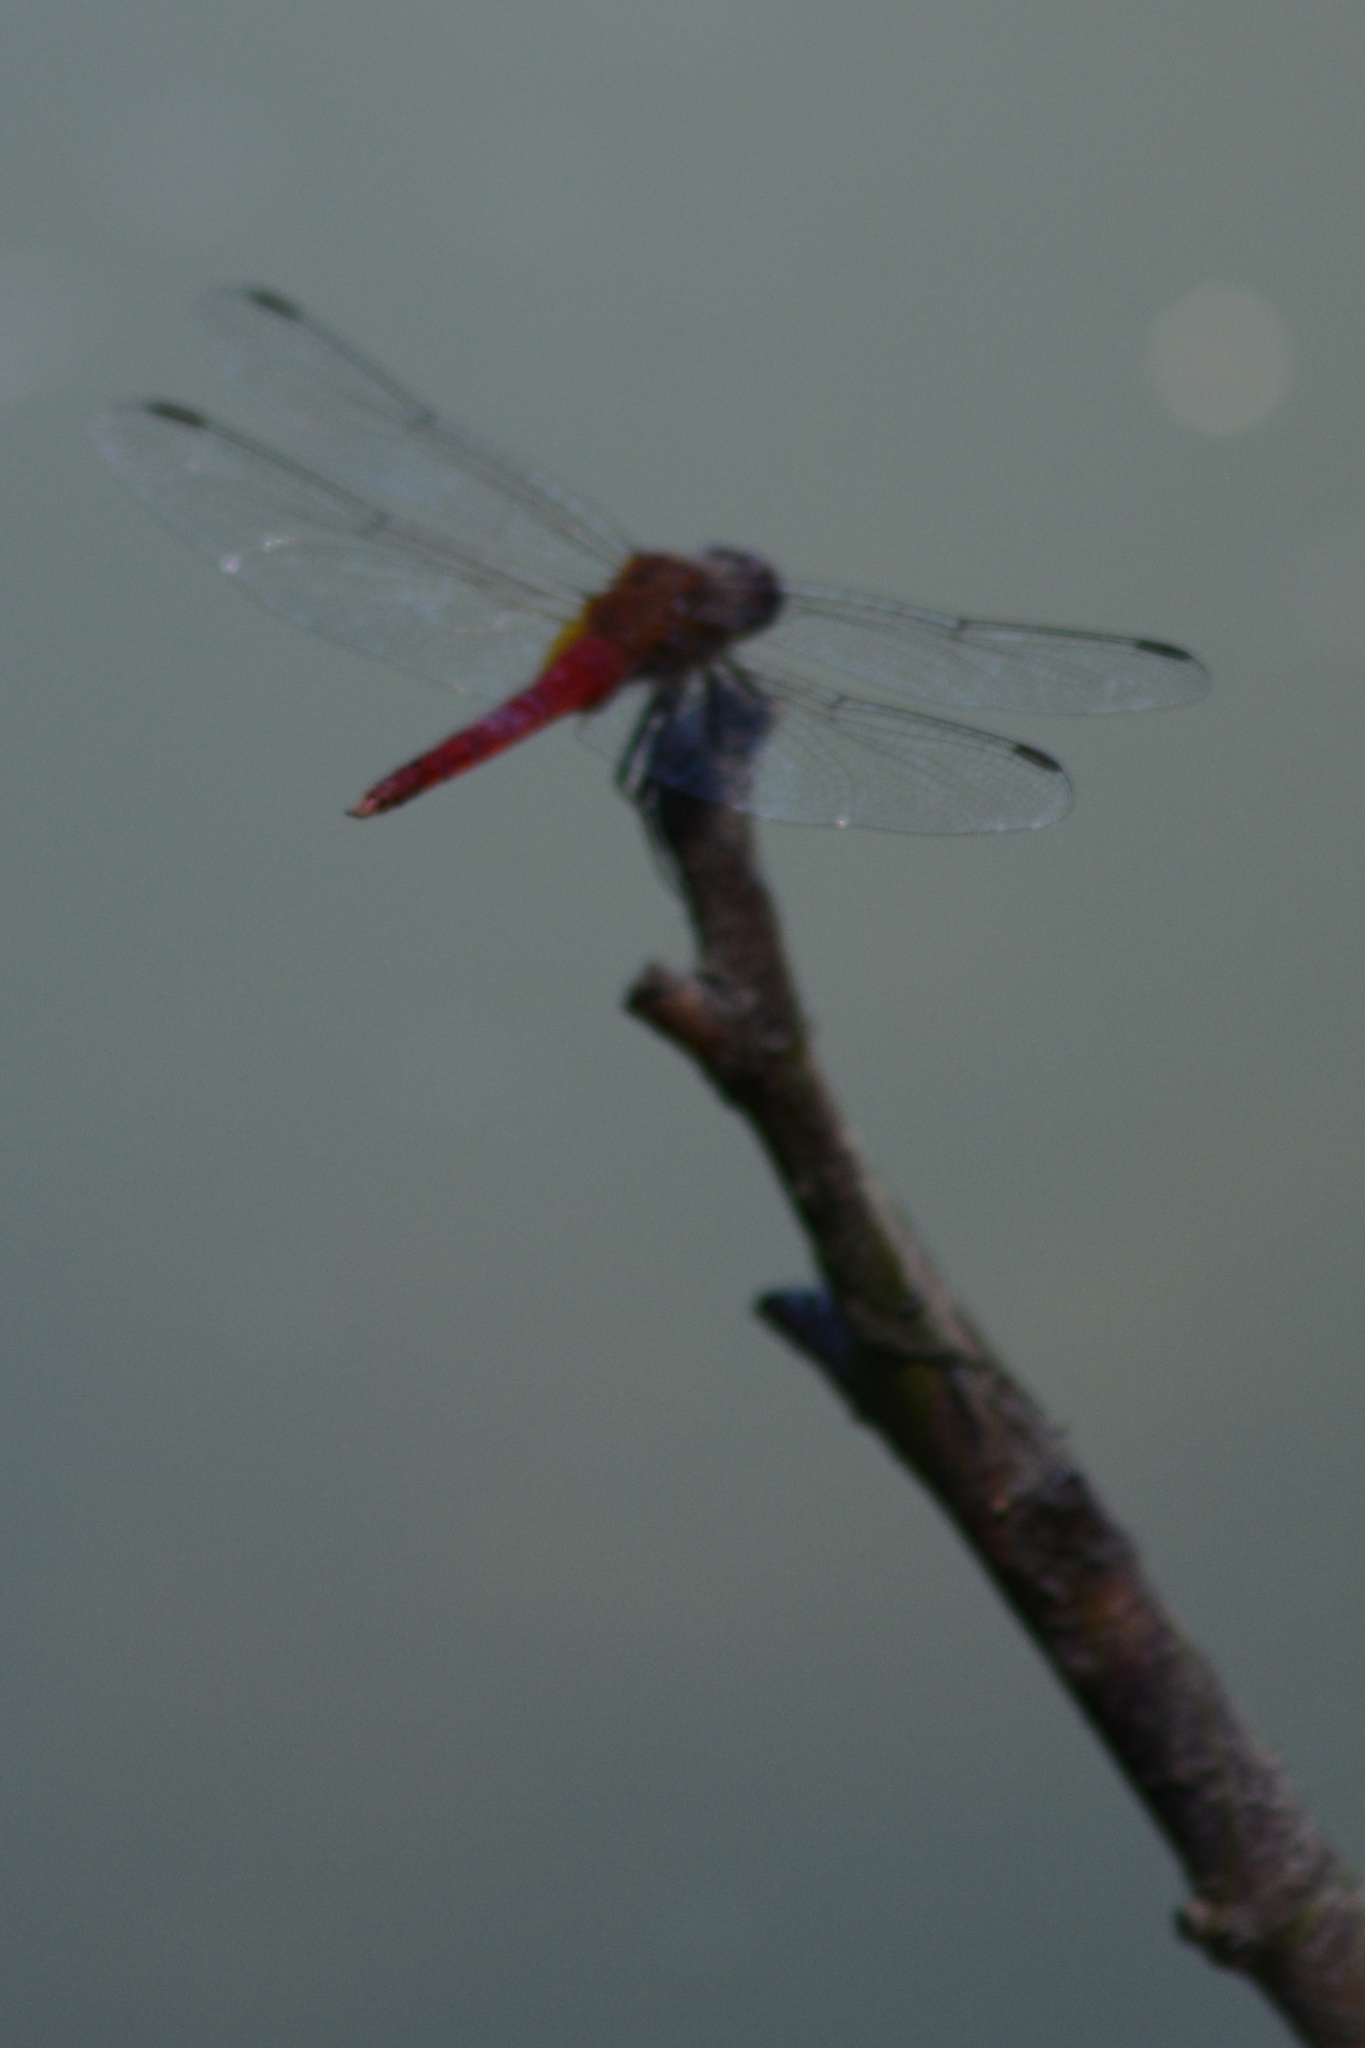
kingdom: Animalia
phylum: Arthropoda
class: Insecta
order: Odonata
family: Libellulidae
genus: Brachymesia
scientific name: Brachymesia furcata
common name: Red-taled pennant
